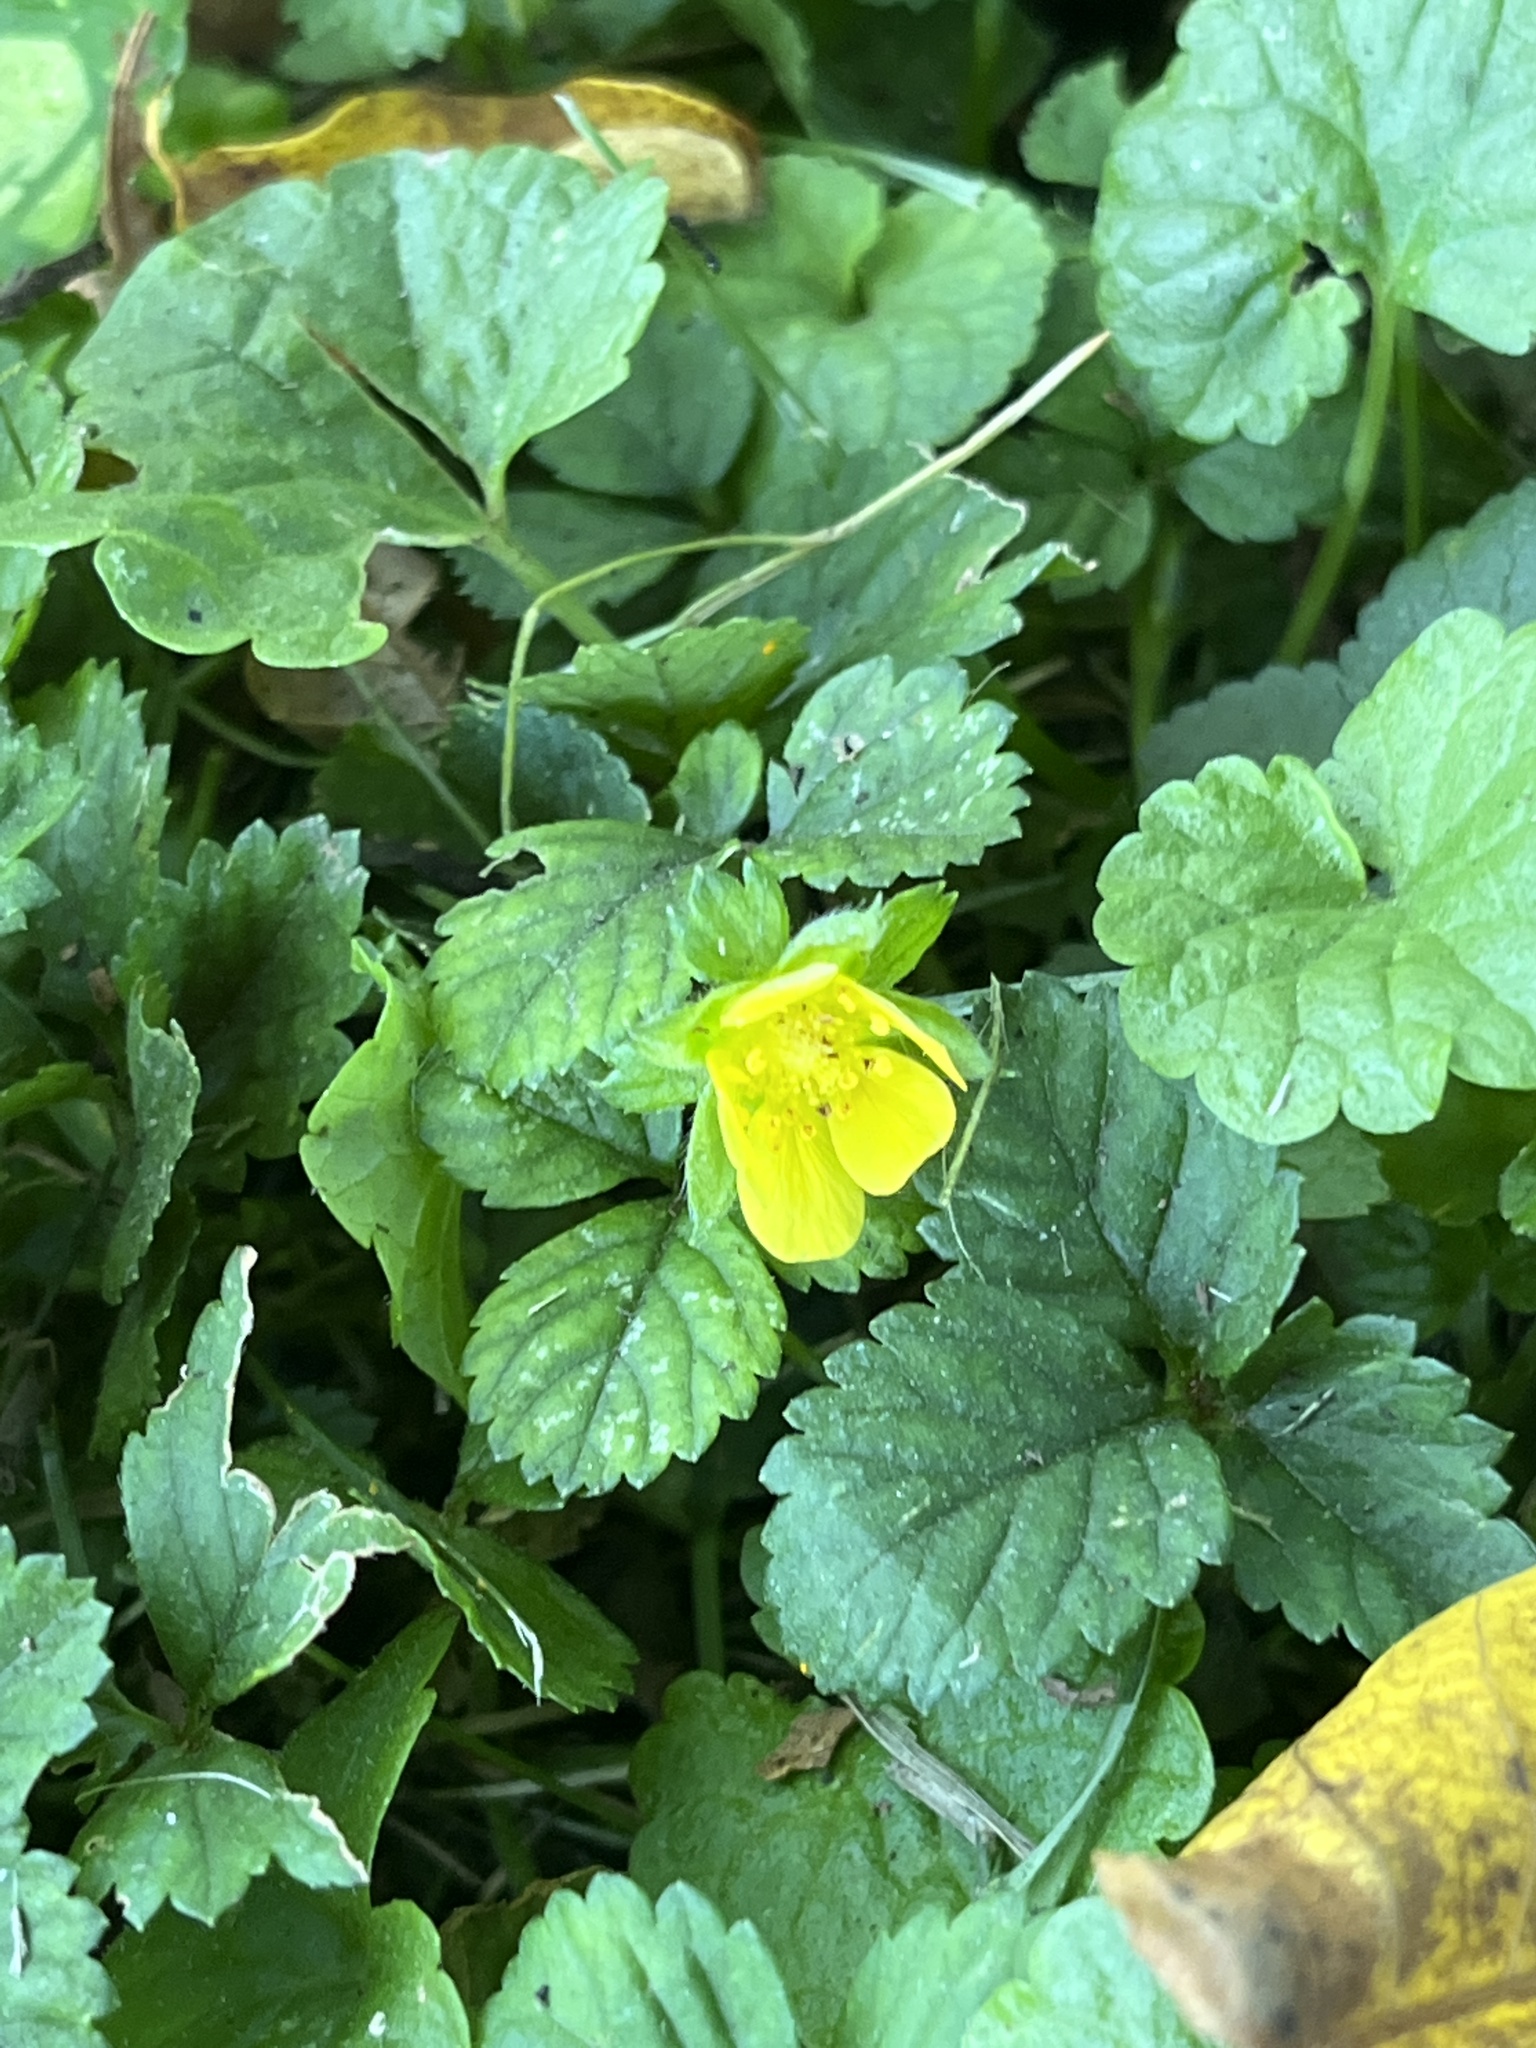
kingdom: Plantae
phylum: Tracheophyta
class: Magnoliopsida
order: Rosales
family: Rosaceae
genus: Potentilla
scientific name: Potentilla indica
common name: Yellow-flowered strawberry
